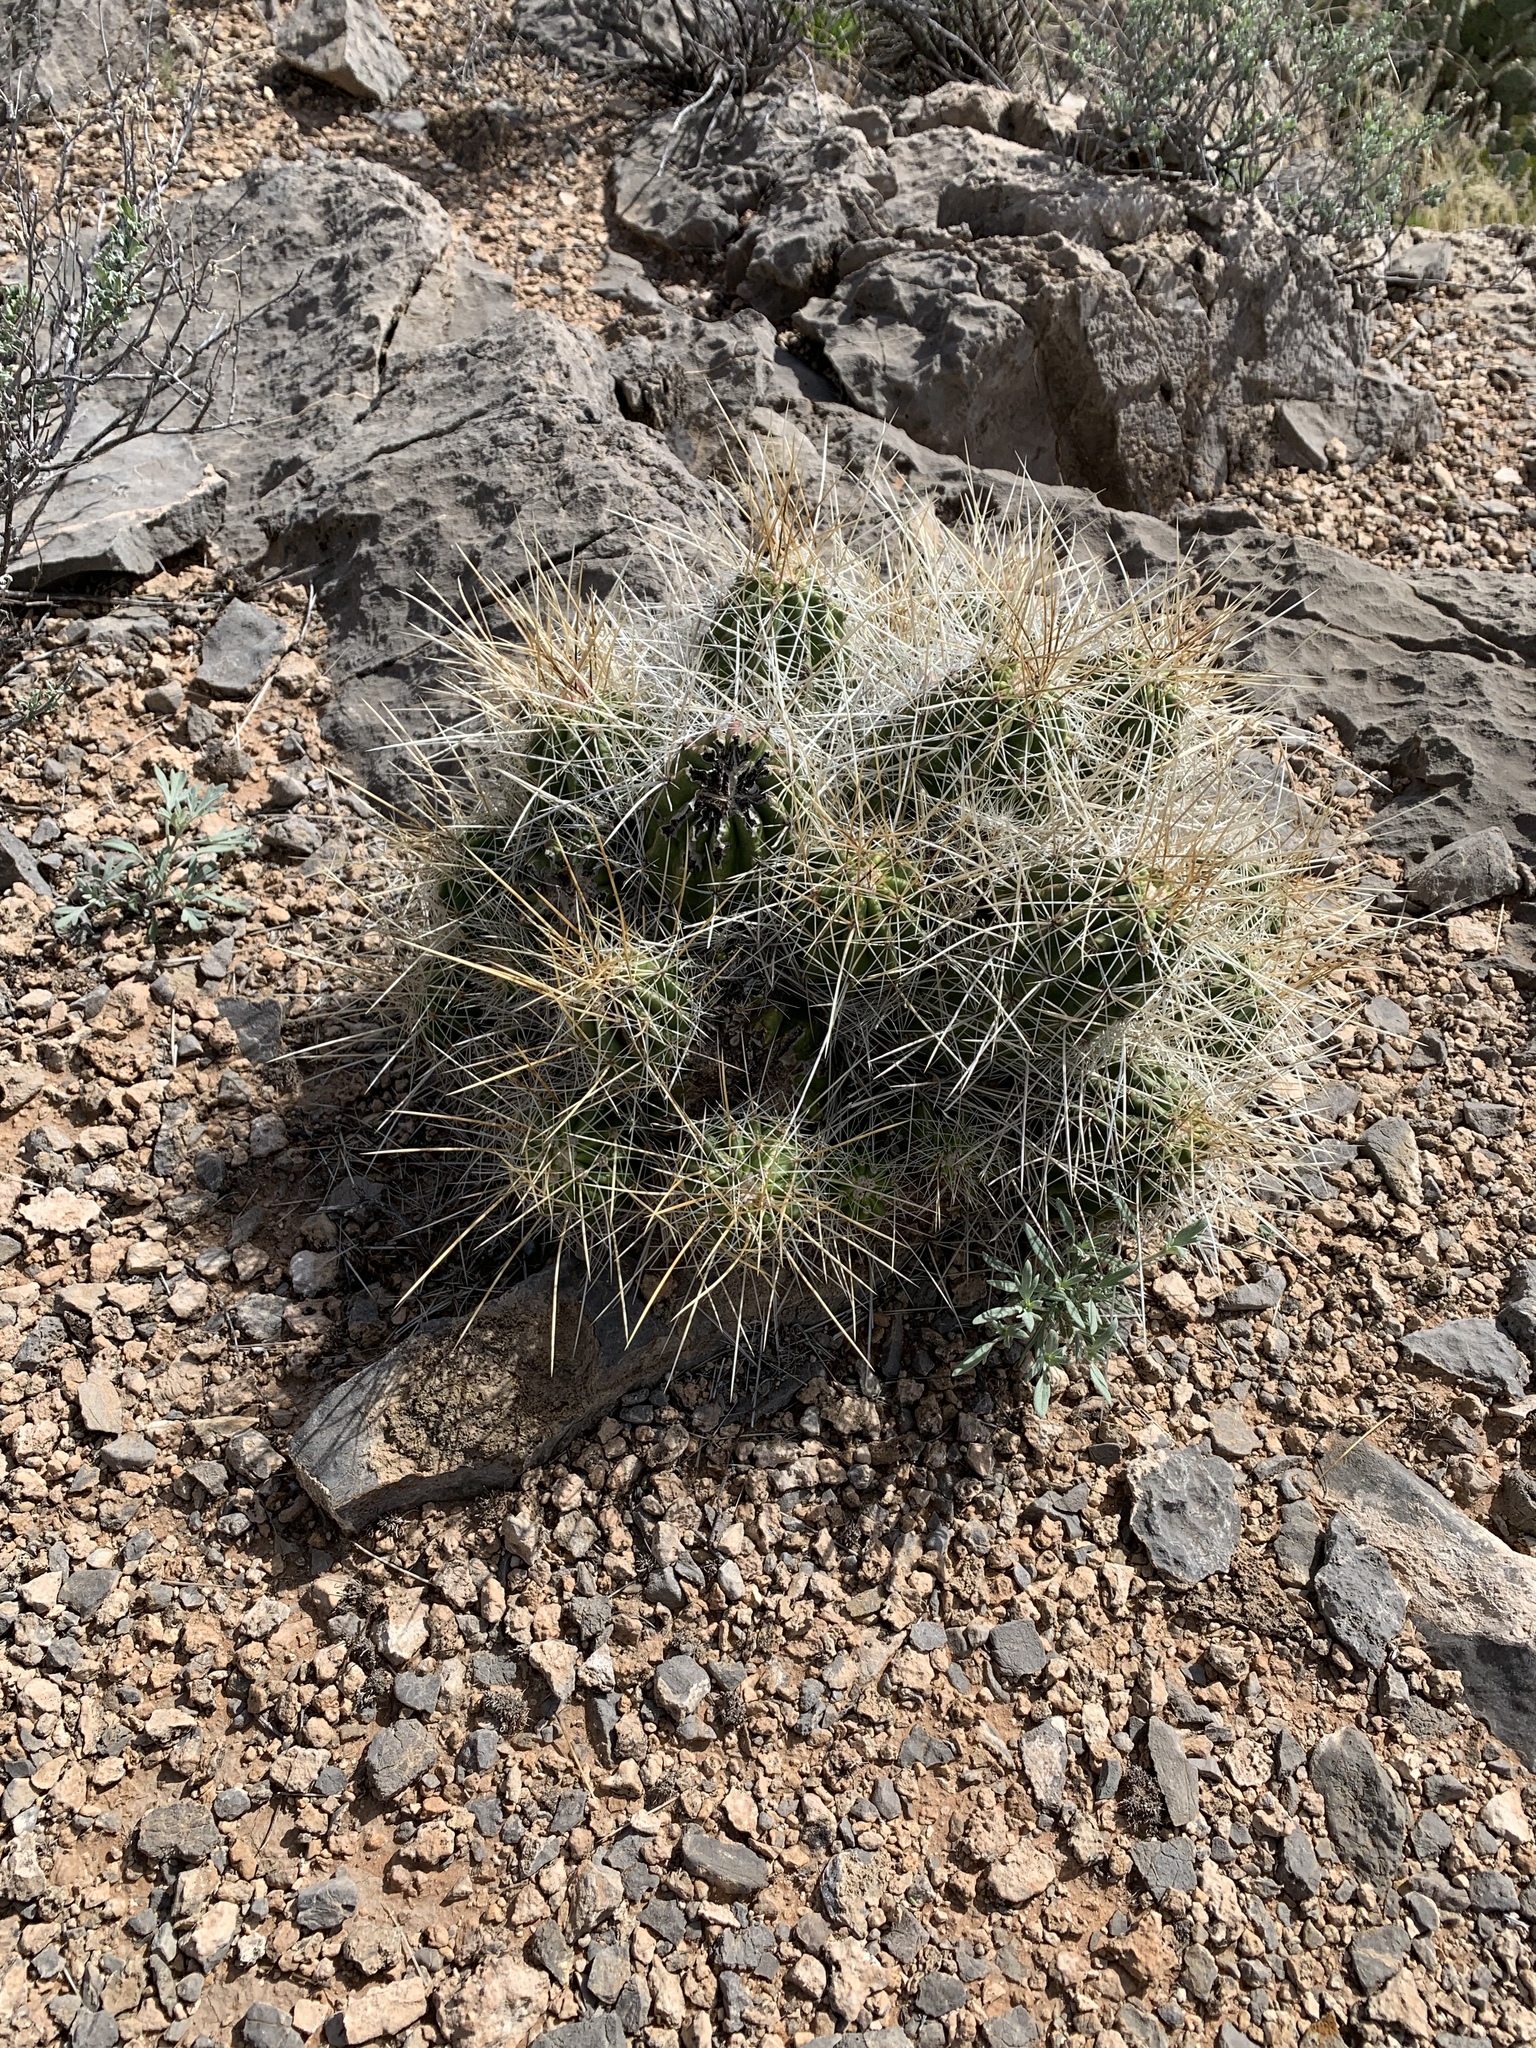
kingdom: Plantae
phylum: Tracheophyta
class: Magnoliopsida
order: Caryophyllales
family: Cactaceae
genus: Echinocereus
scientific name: Echinocereus stramineus
